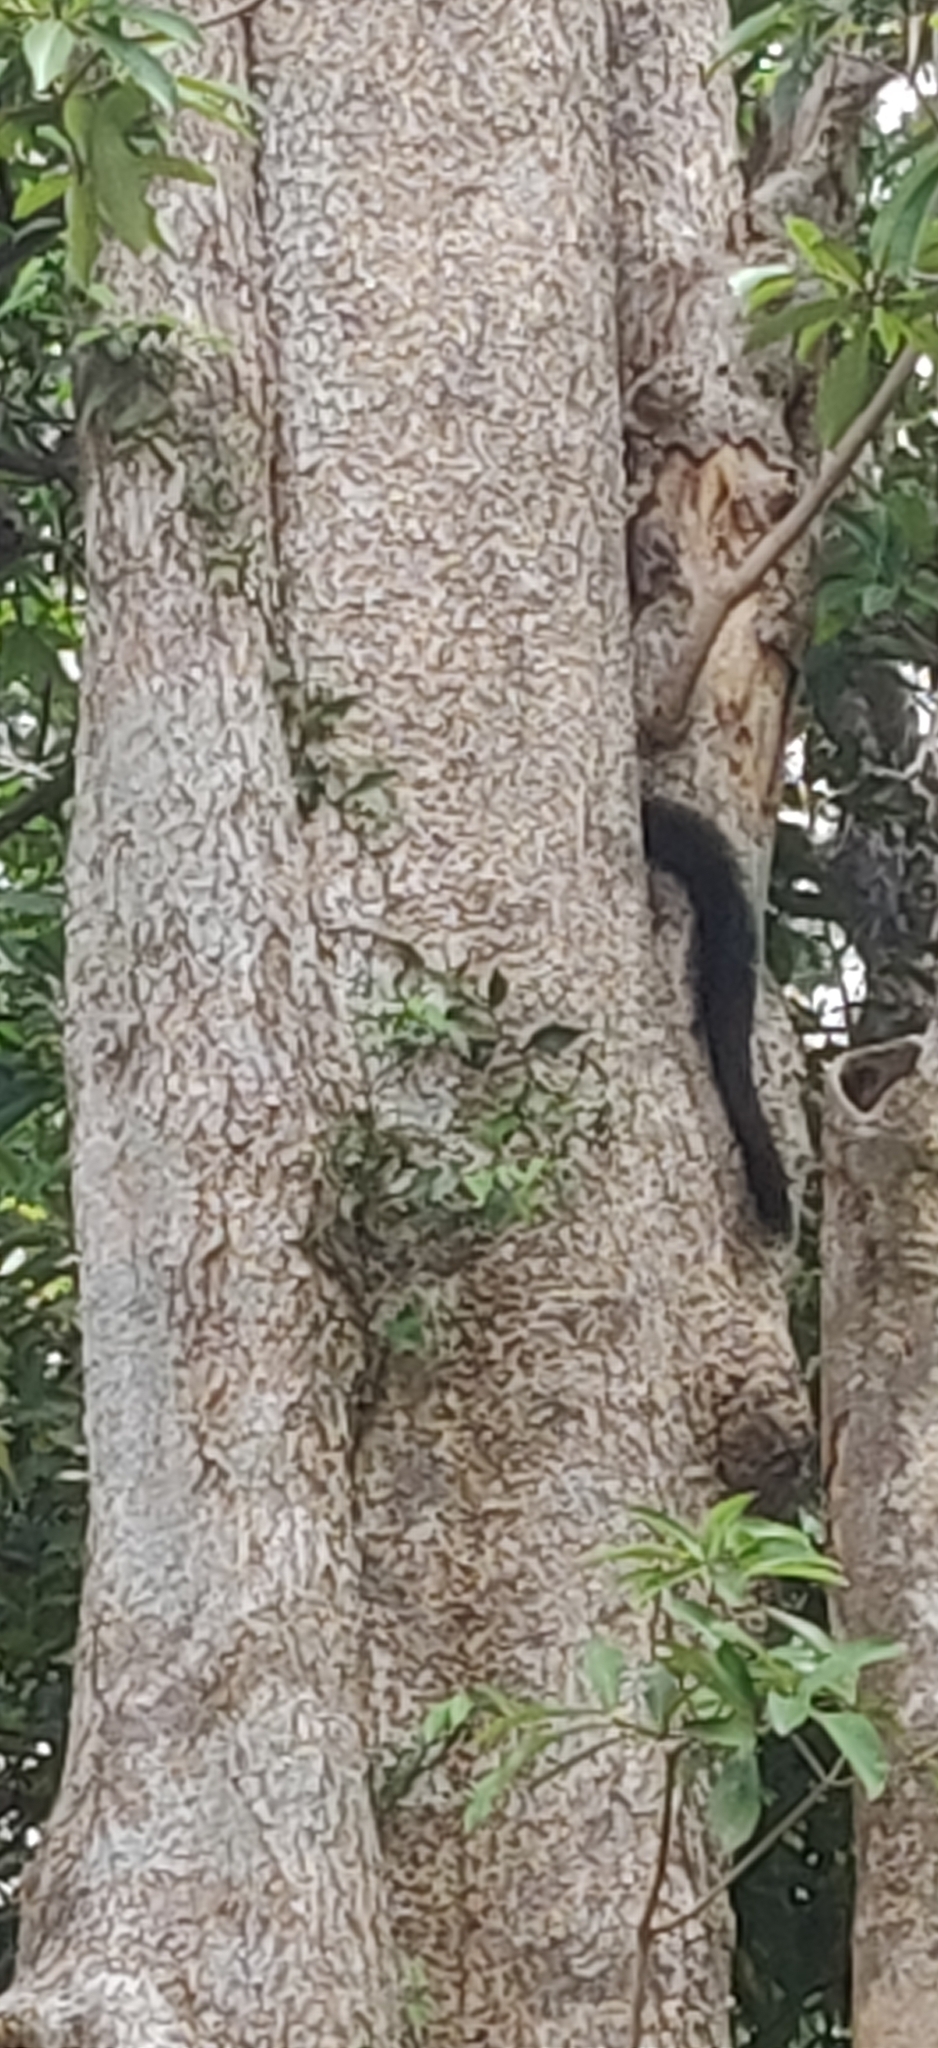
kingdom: Animalia
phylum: Chordata
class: Mammalia
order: Carnivora
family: Mustelidae
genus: Martes
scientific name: Martes gwatkinsii
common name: Nilgiri marten
